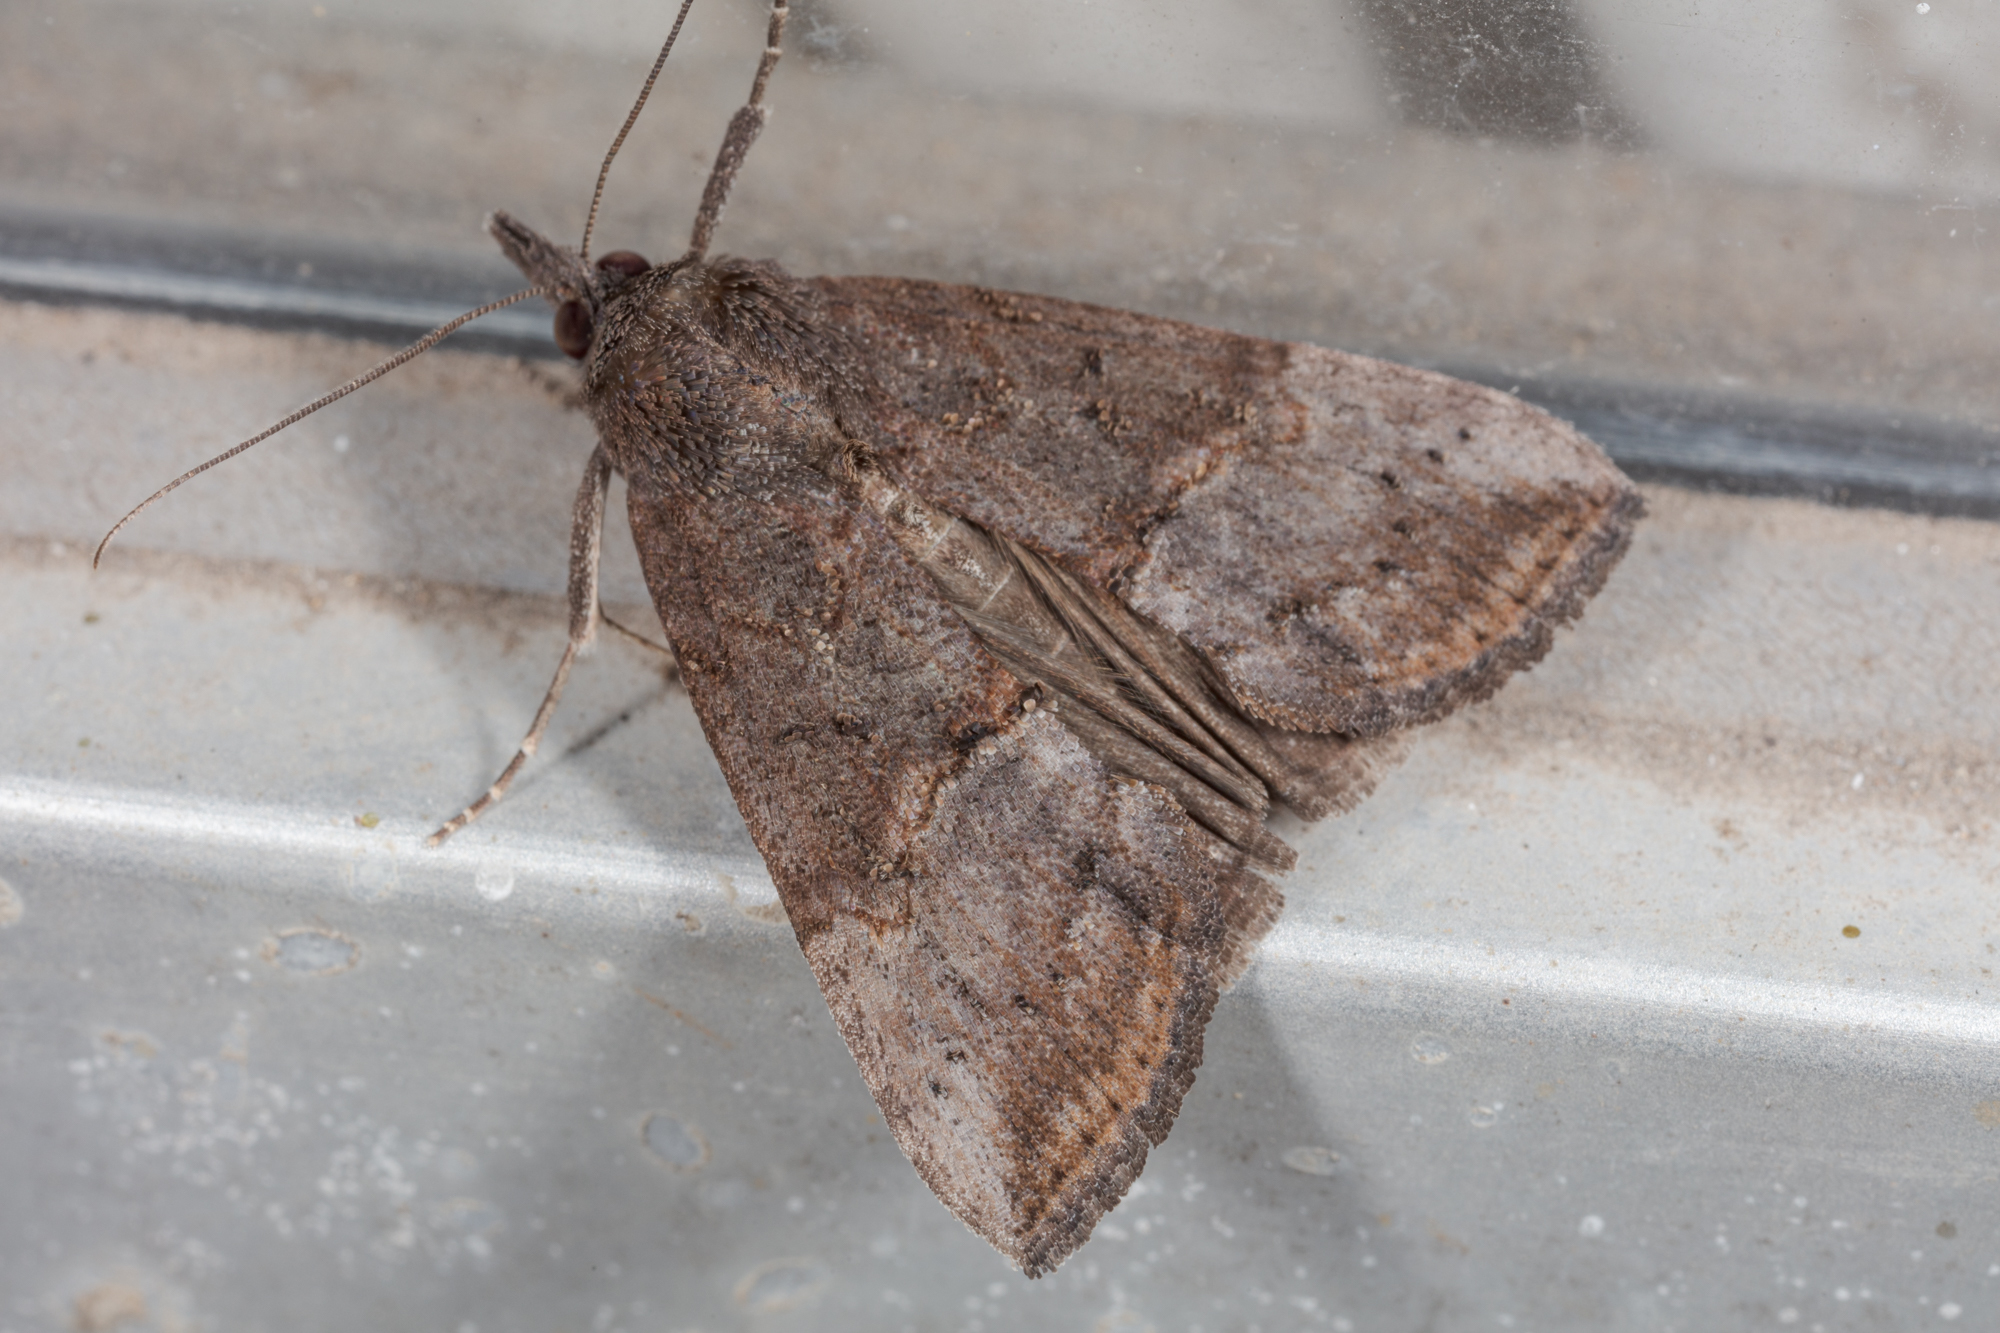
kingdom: Animalia
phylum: Arthropoda
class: Insecta
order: Lepidoptera
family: Erebidae
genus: Hypena
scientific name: Hypena scabra
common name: Green cloverworm
